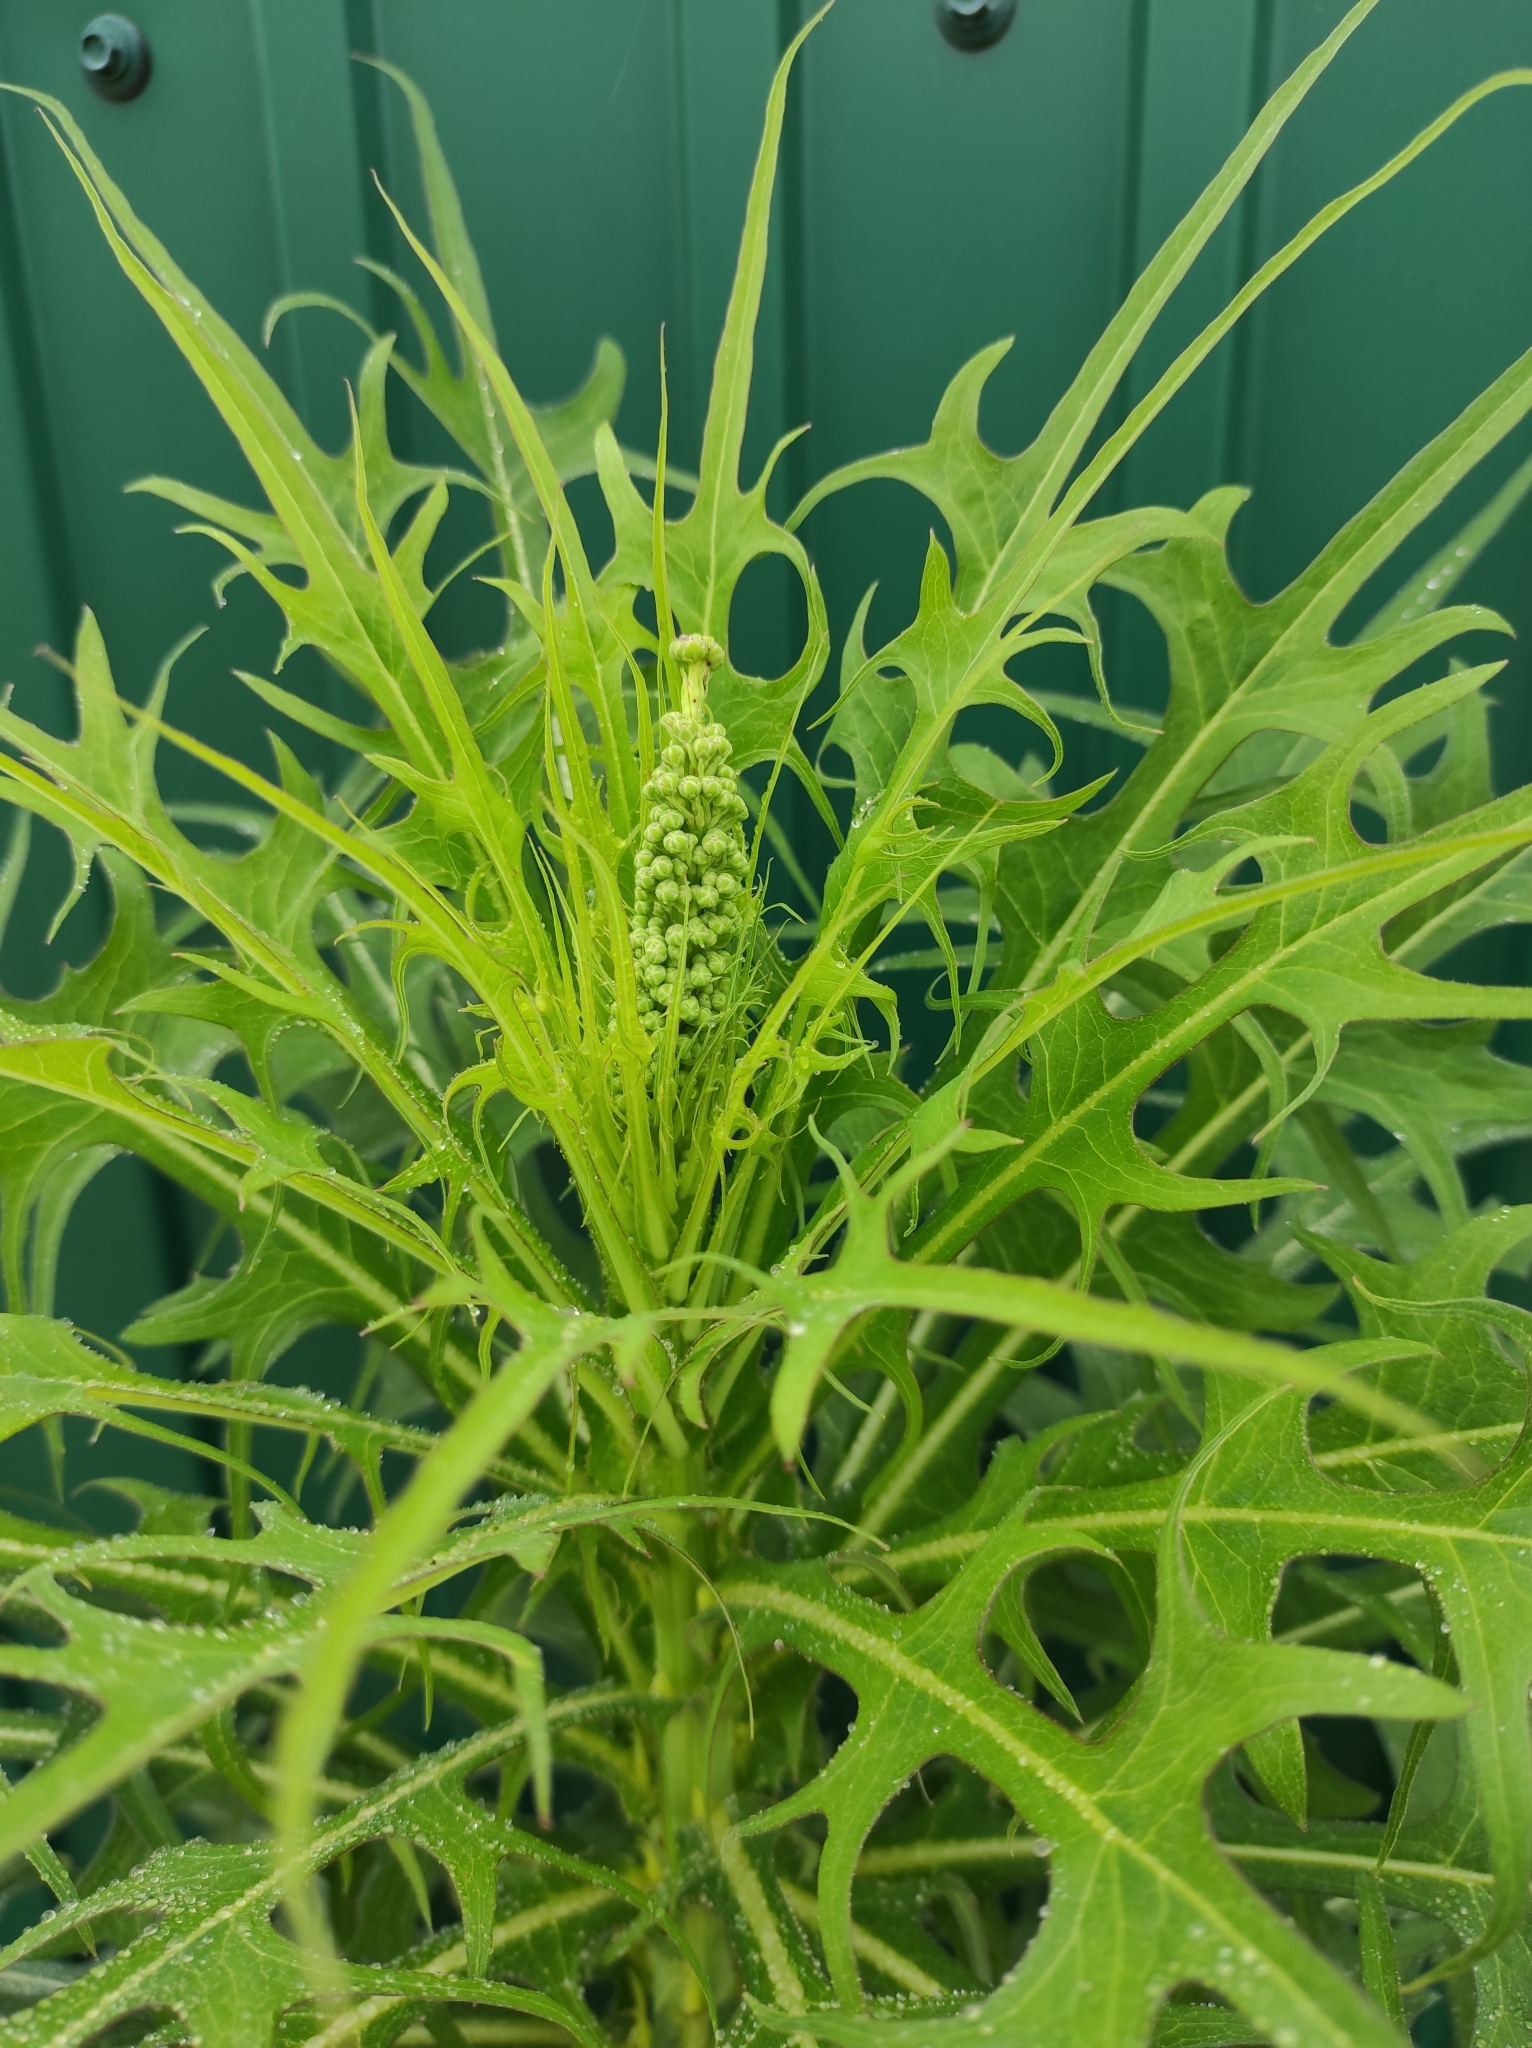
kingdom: Plantae
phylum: Tracheophyta
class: Magnoliopsida
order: Asterales
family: Asteraceae
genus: Lactuca
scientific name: Lactuca indica
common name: Wild lettuce
